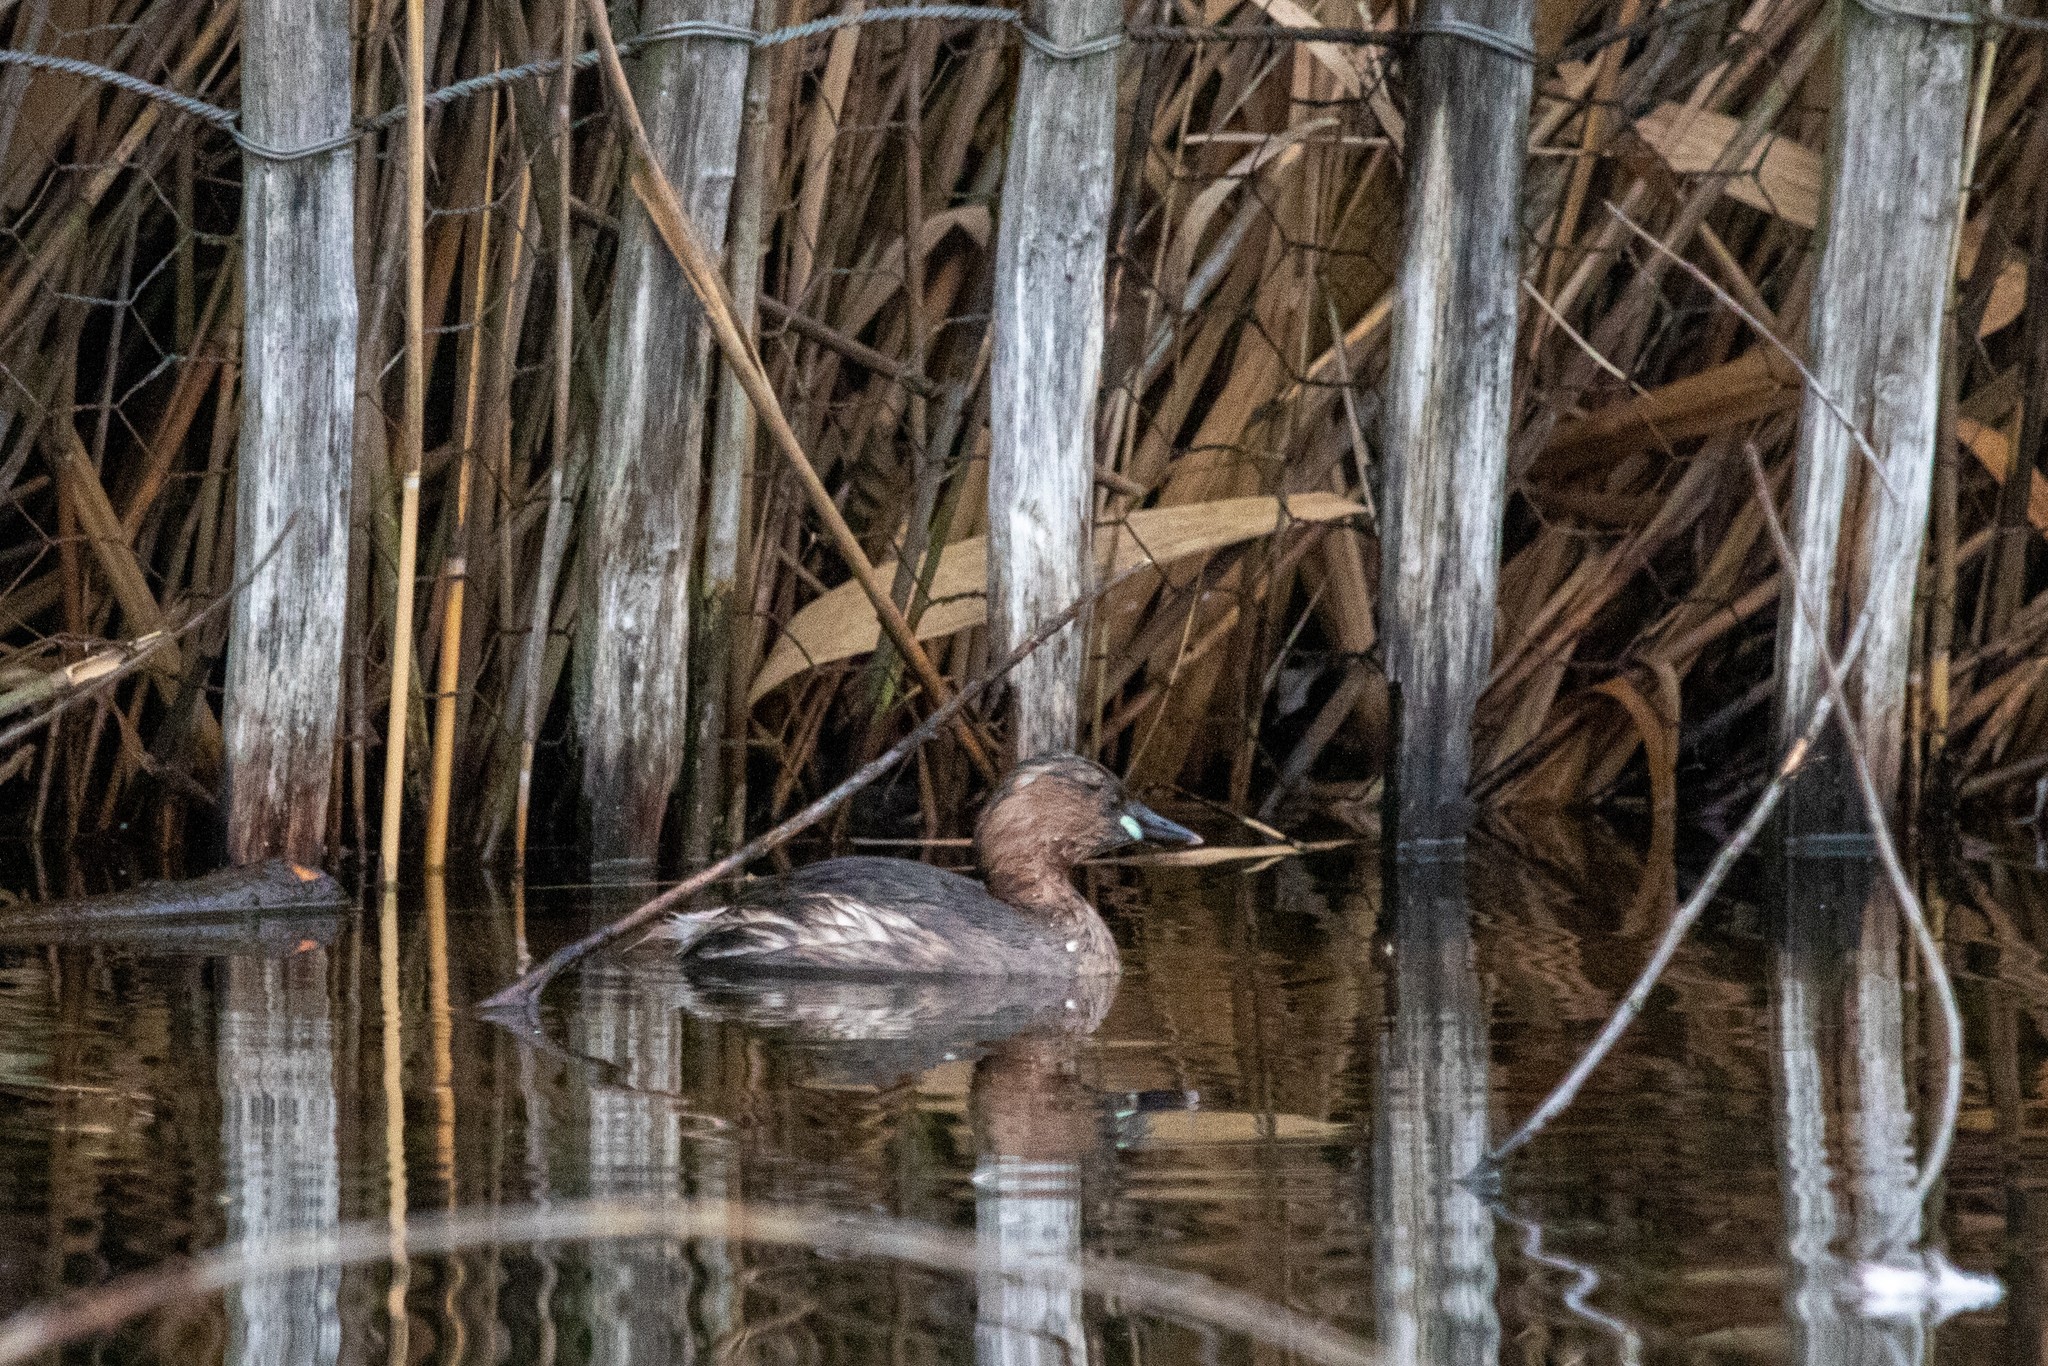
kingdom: Animalia
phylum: Chordata
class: Aves
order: Podicipediformes
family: Podicipedidae
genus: Tachybaptus
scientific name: Tachybaptus ruficollis
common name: Little grebe
